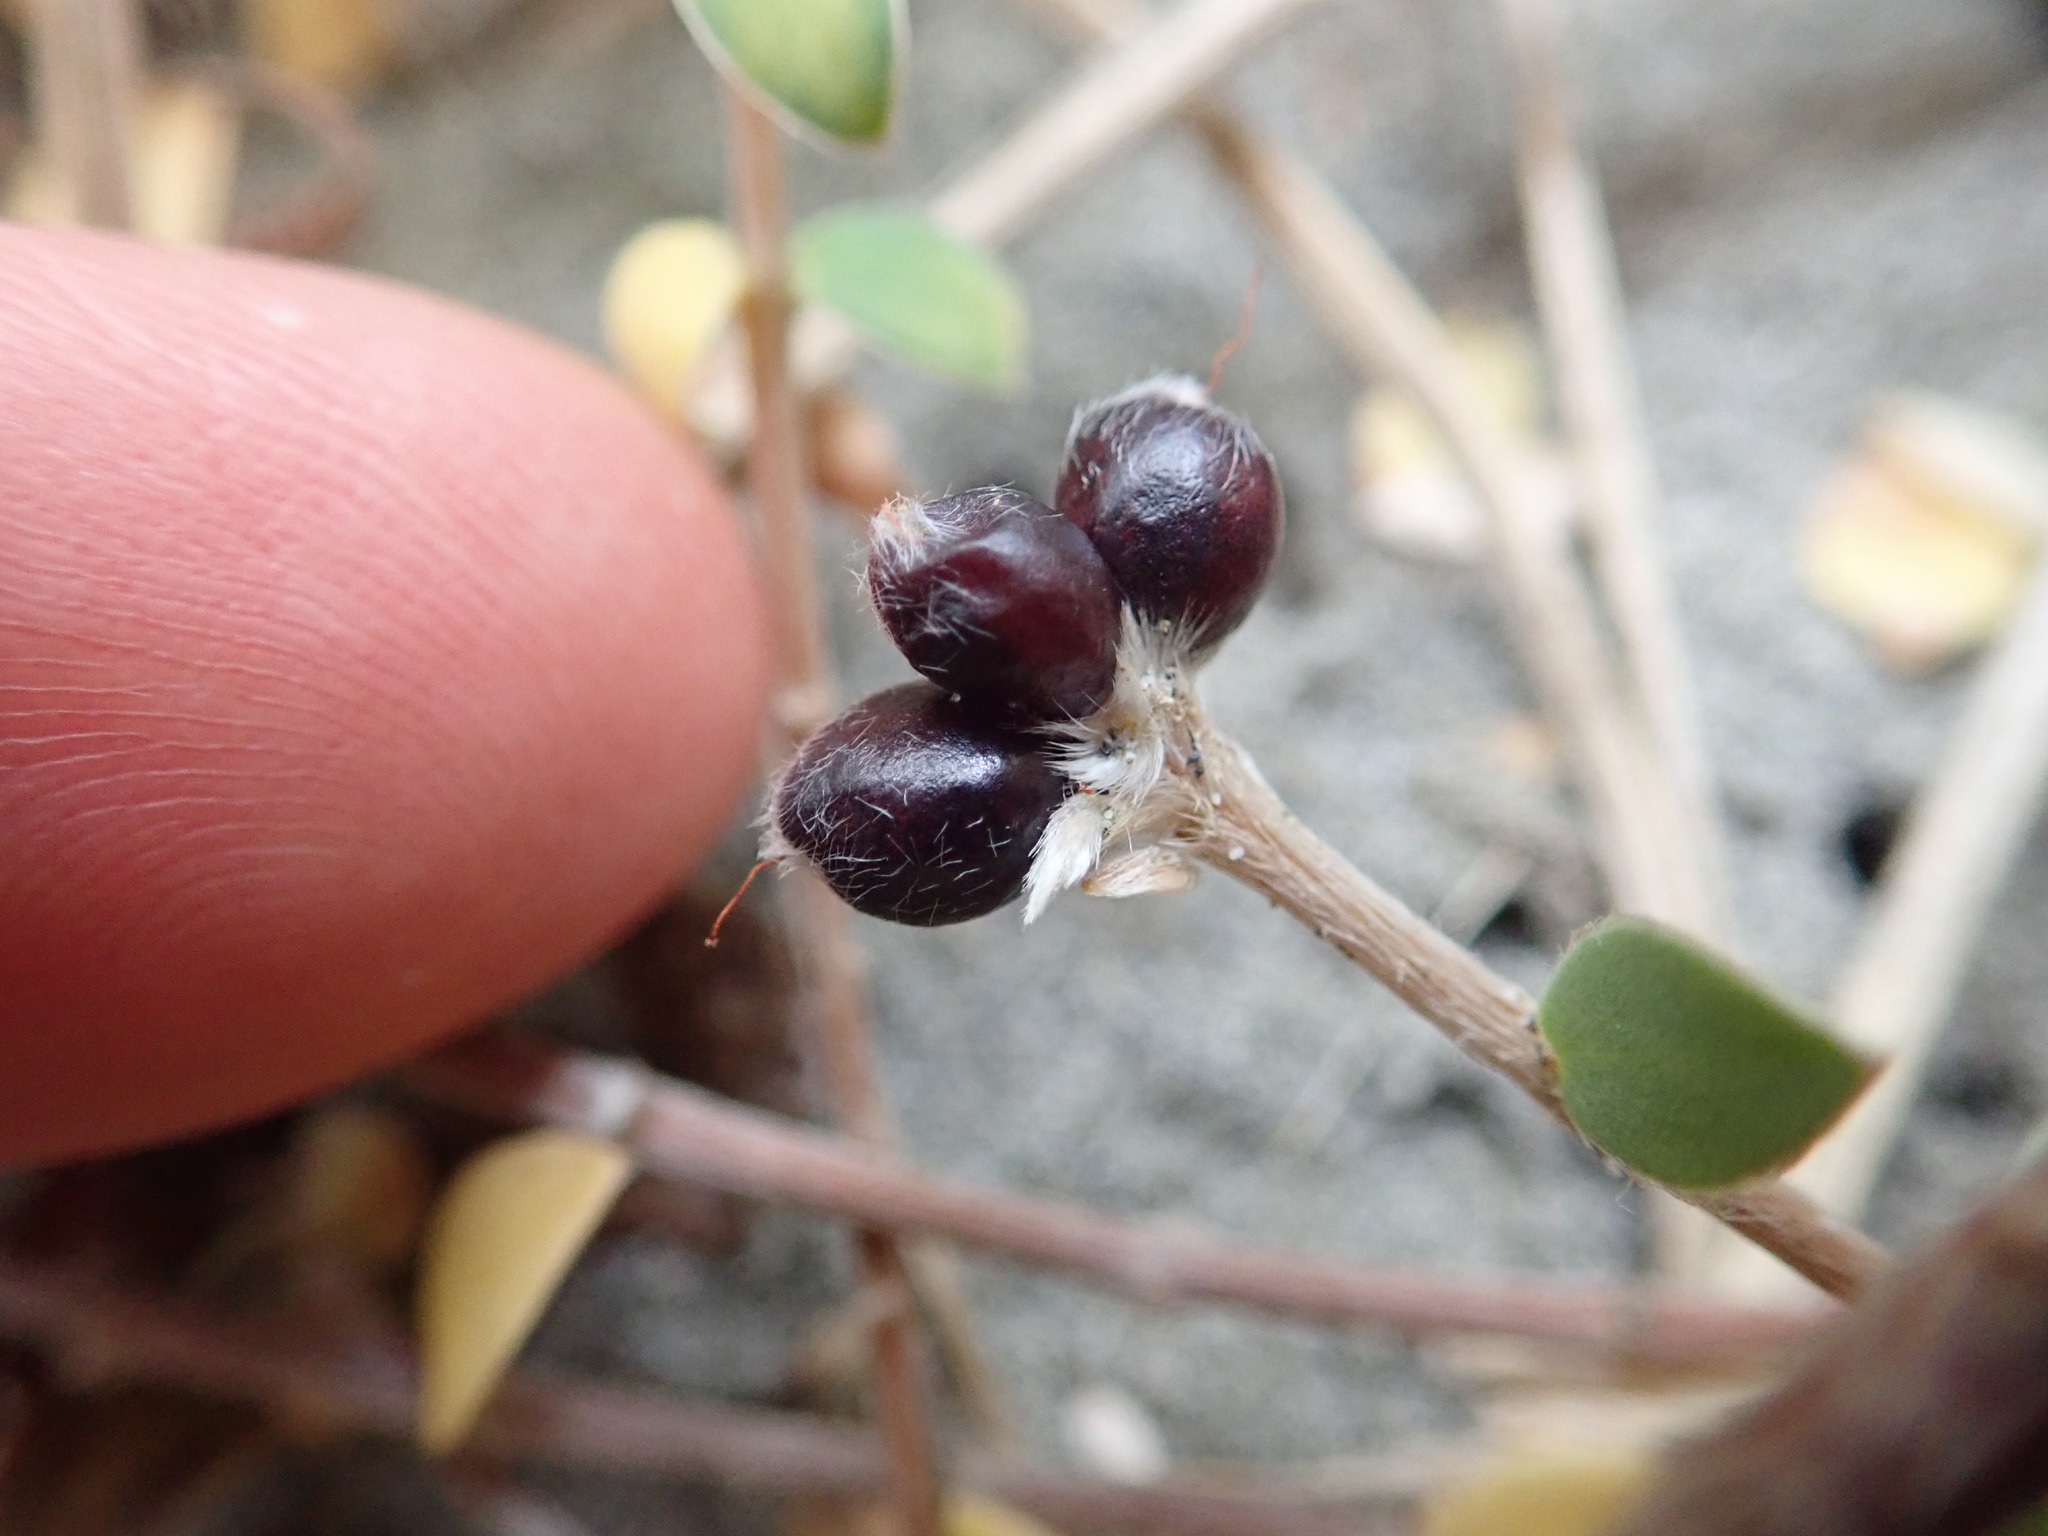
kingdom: Plantae
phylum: Tracheophyta
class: Magnoliopsida
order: Malvales
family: Thymelaeaceae
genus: Pimelea
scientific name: Pimelea villosa
